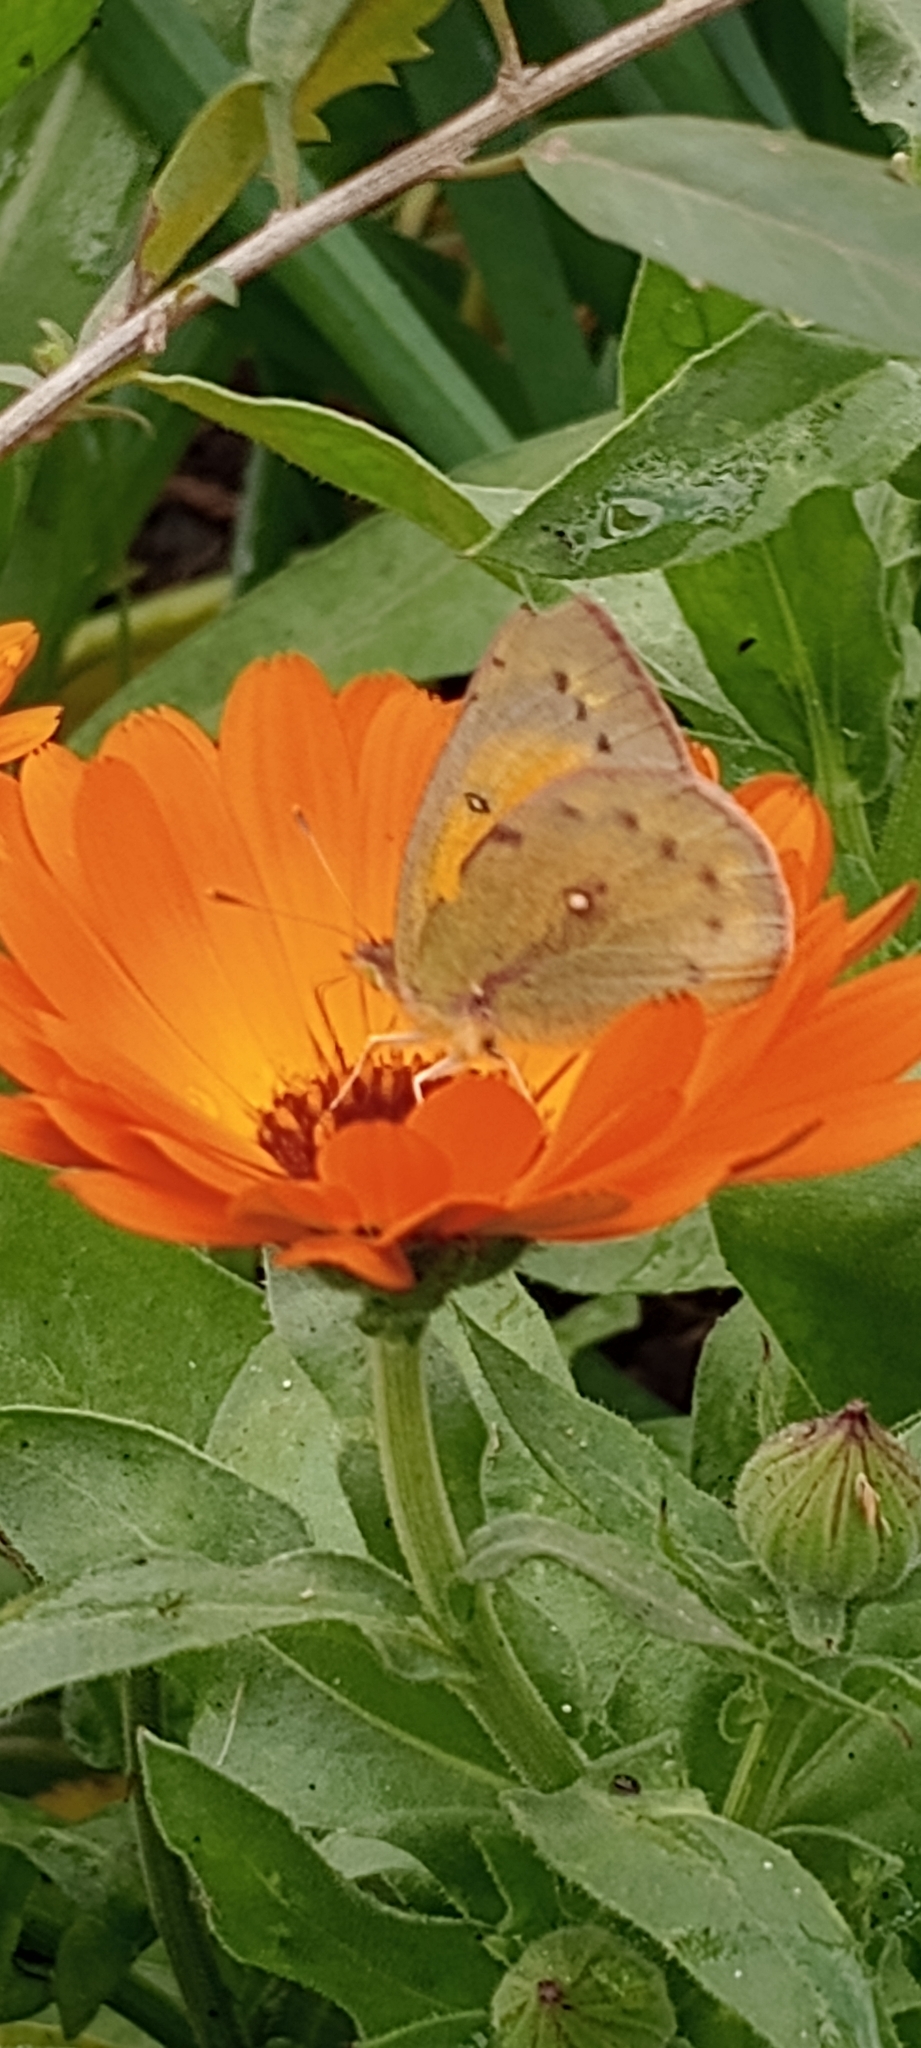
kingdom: Animalia
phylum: Arthropoda
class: Insecta
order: Lepidoptera
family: Pieridae
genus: Colias
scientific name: Colias lesbia
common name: Lesbia clouded yellow
